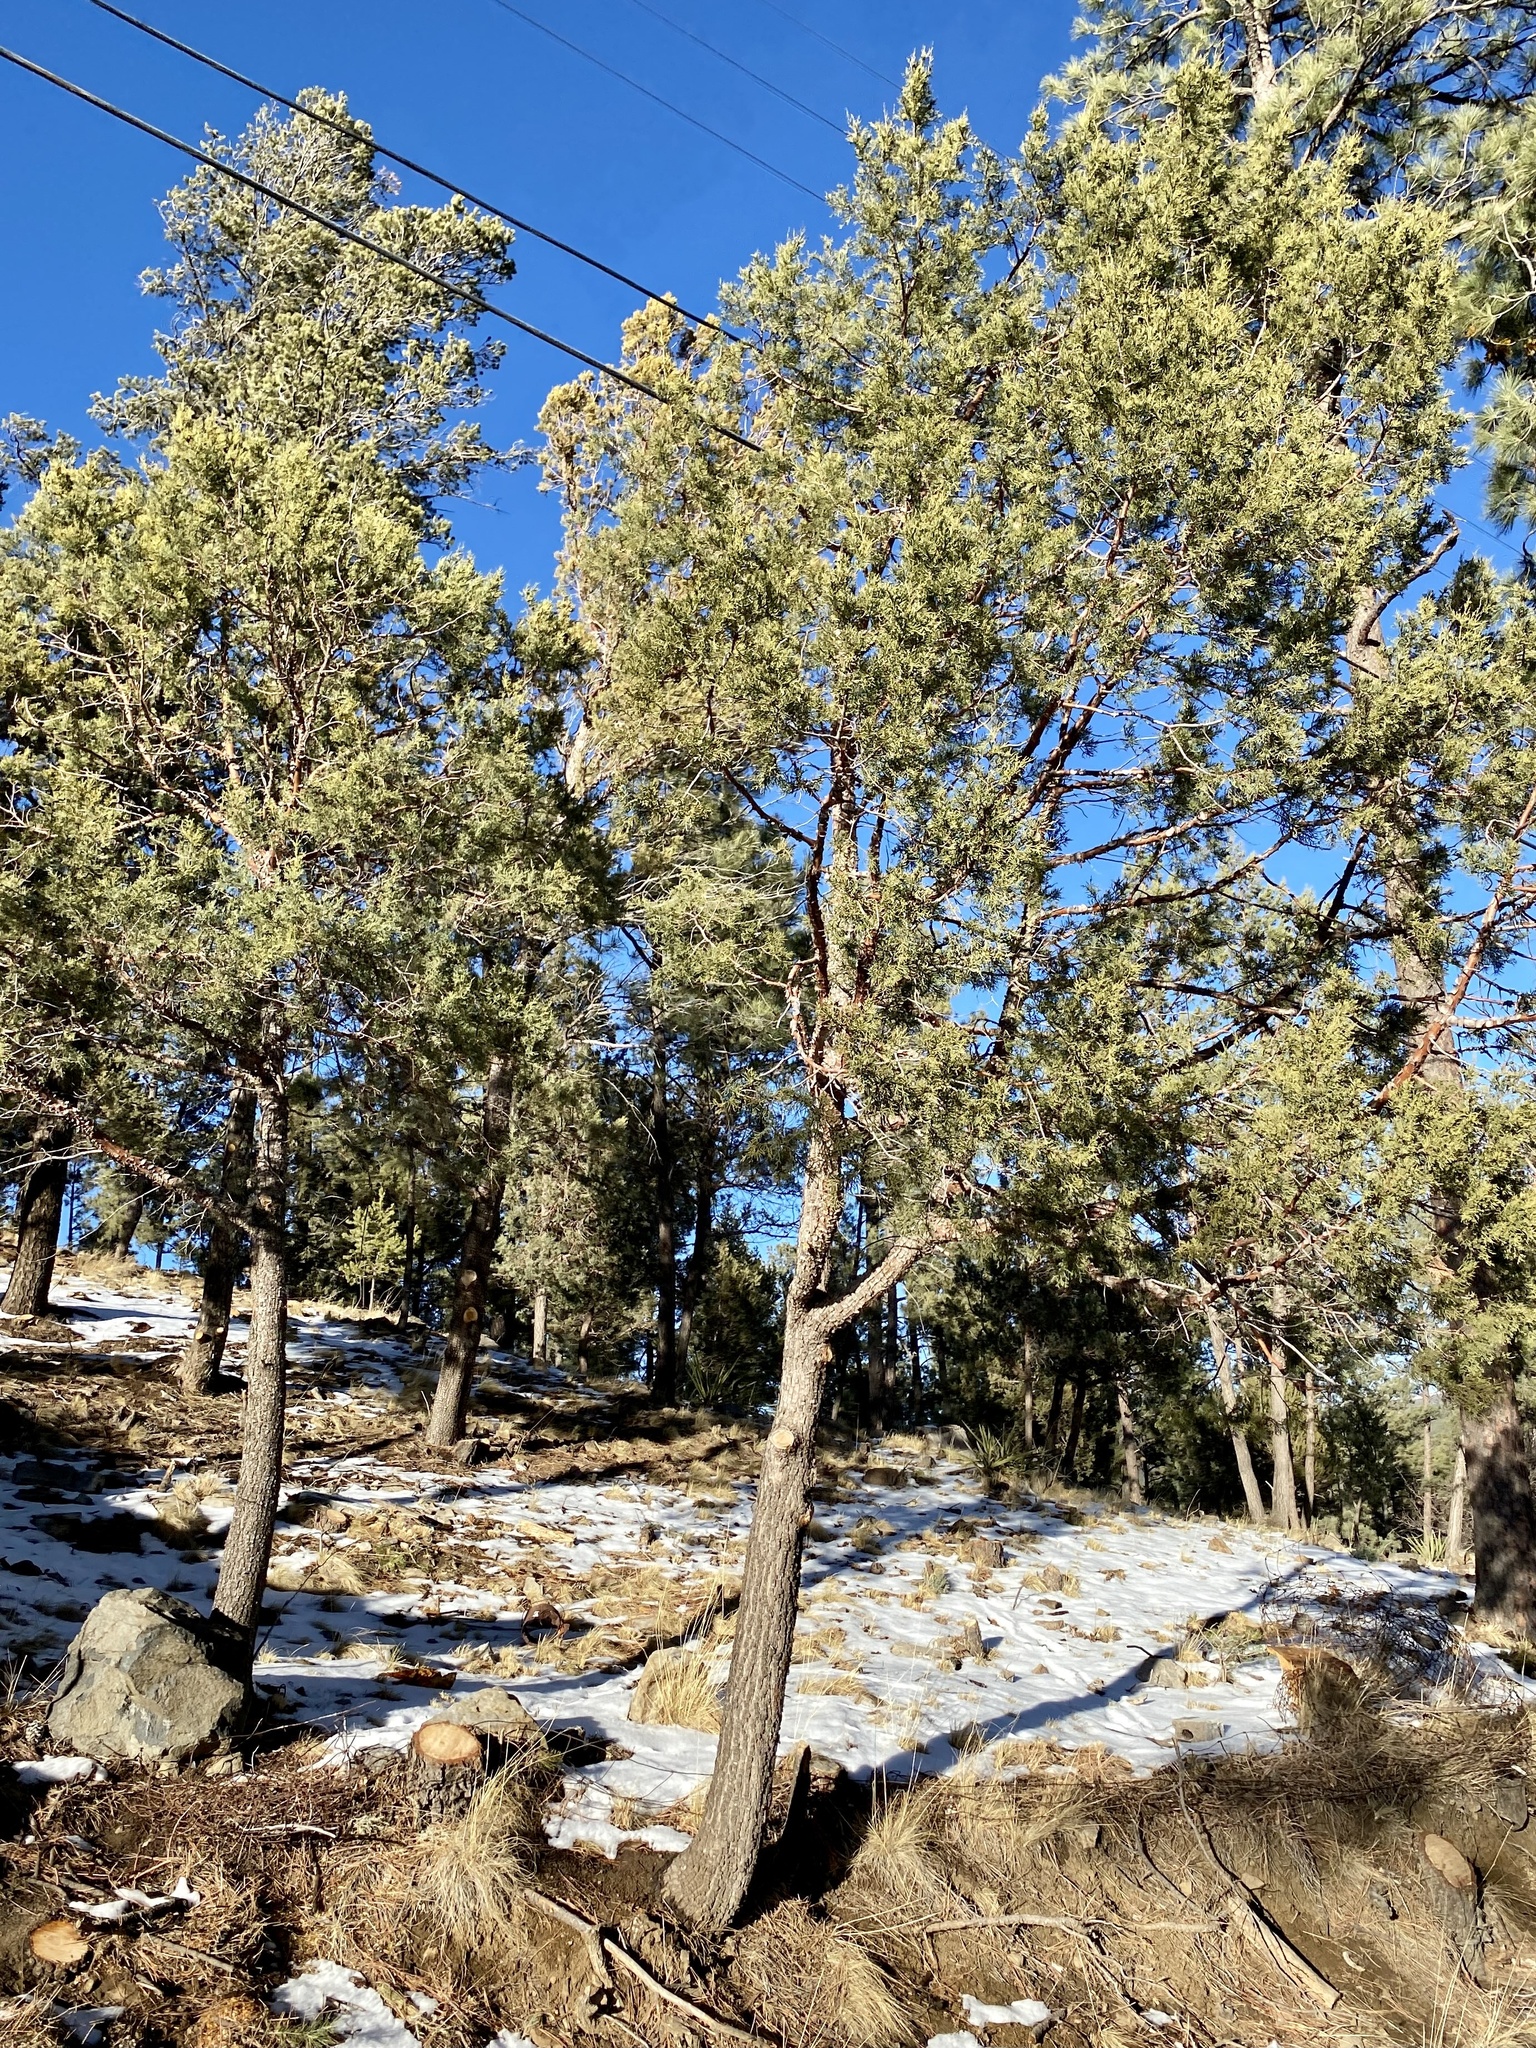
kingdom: Plantae
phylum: Tracheophyta
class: Pinopsida
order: Pinales
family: Cupressaceae
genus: Juniperus
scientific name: Juniperus deppeana
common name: Alligator juniper
